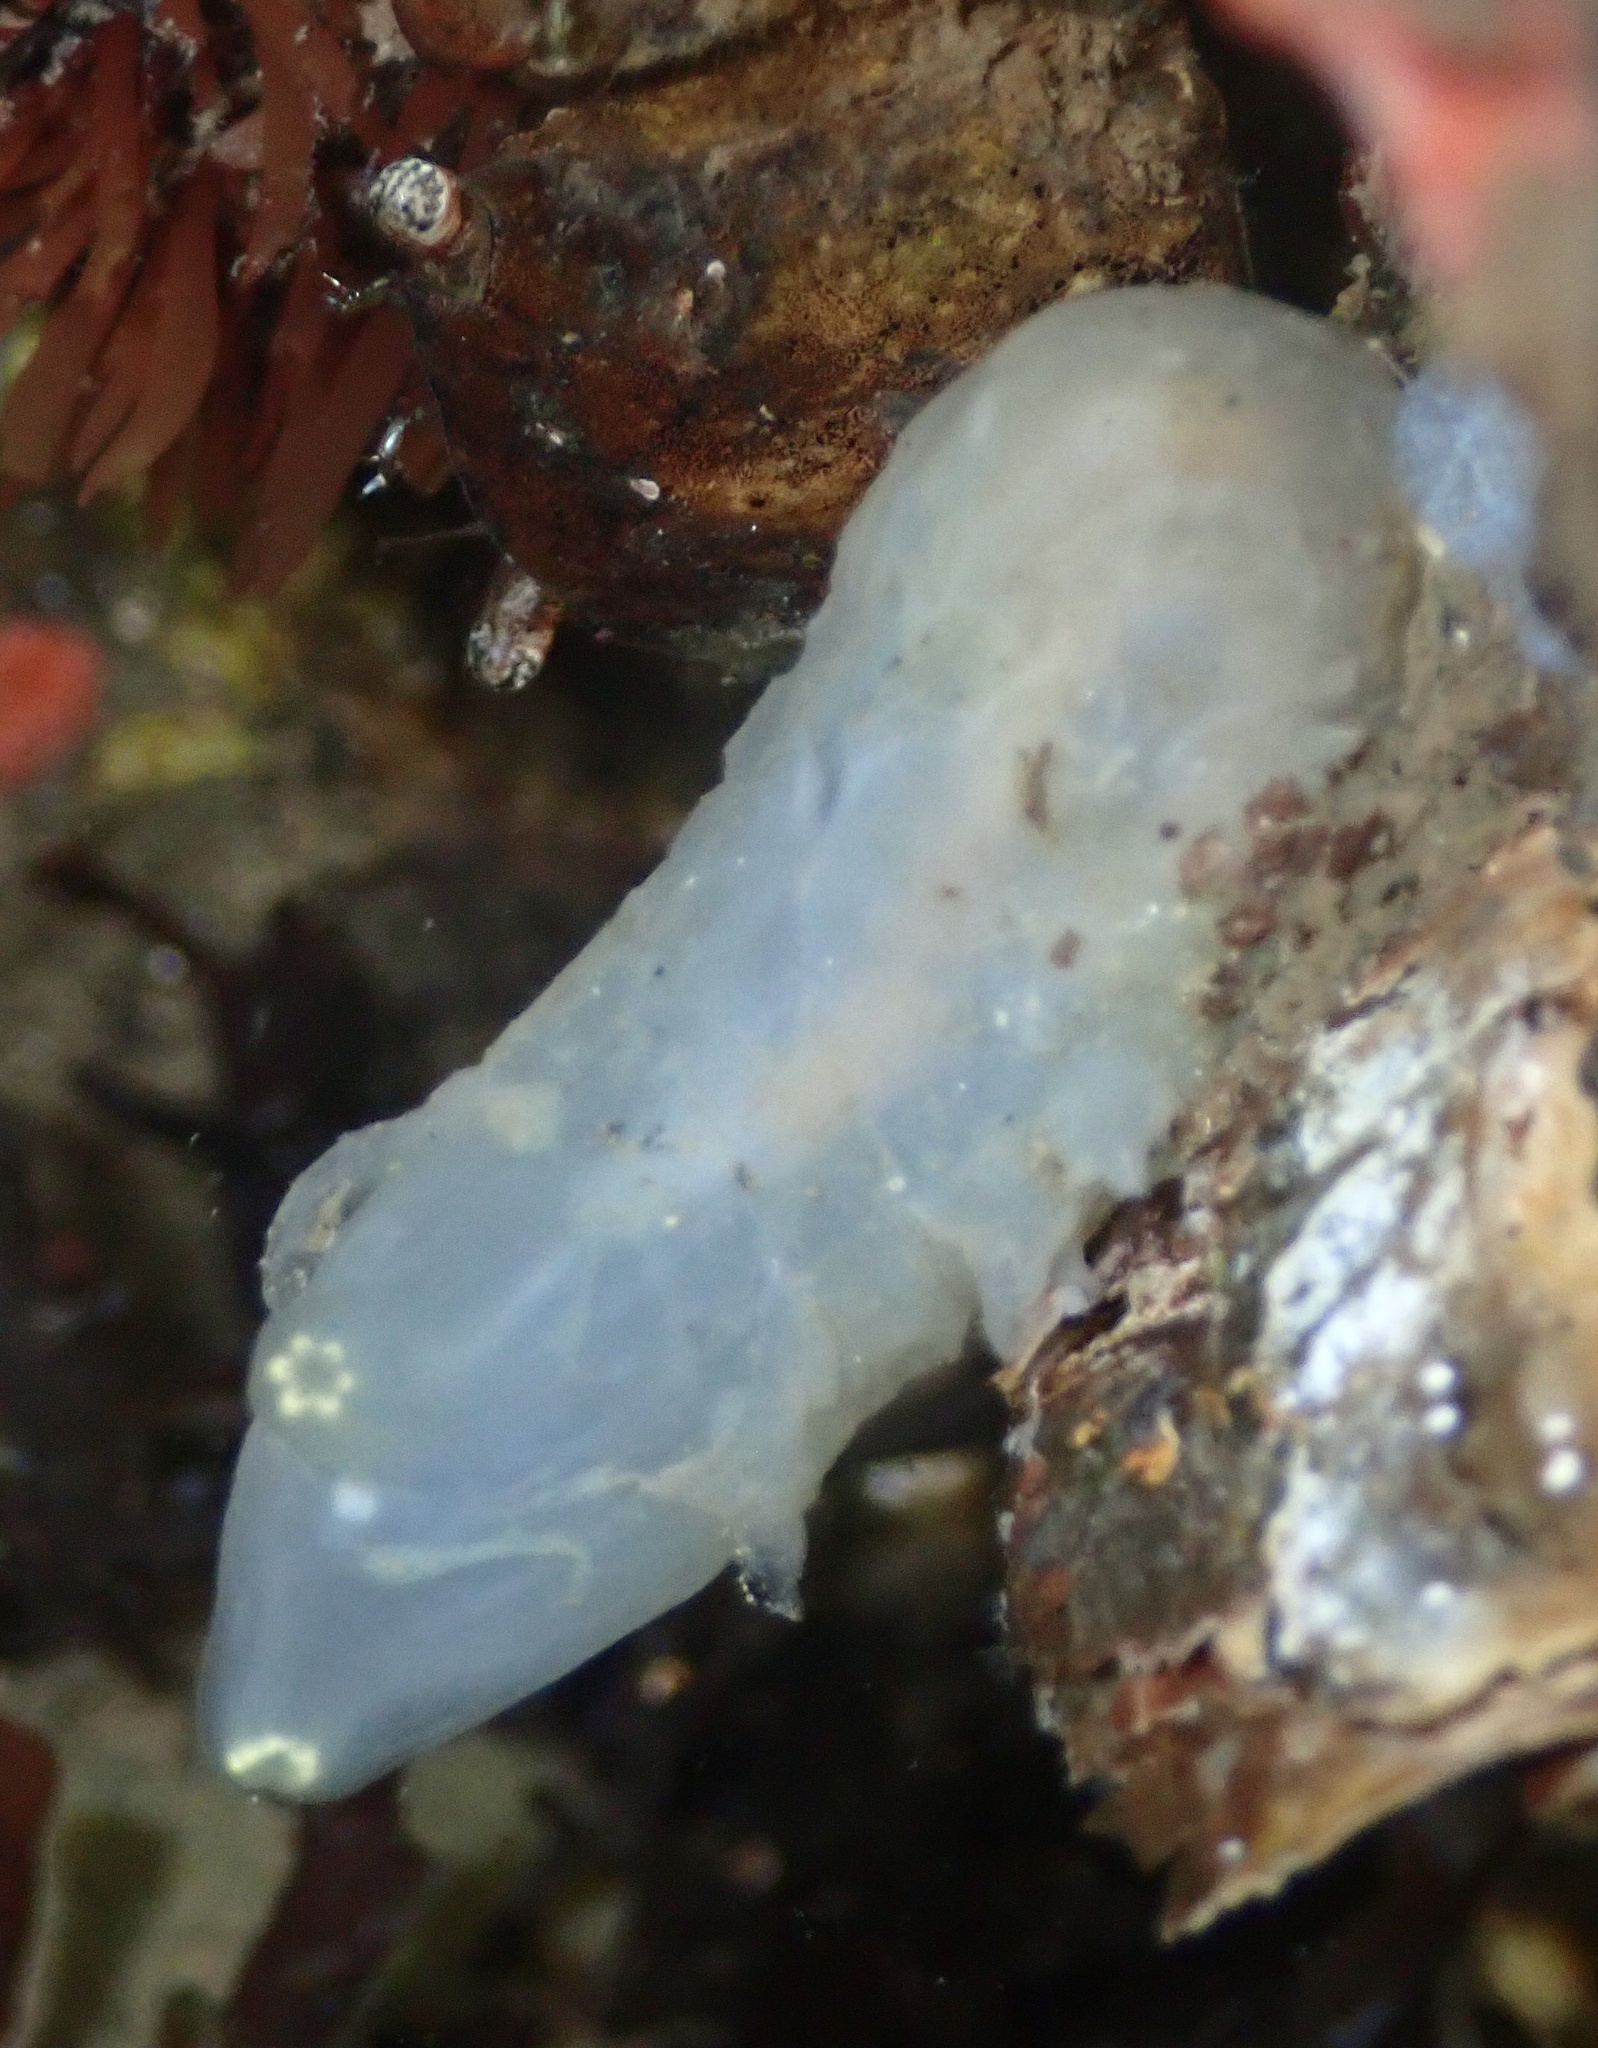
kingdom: Animalia
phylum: Chordata
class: Ascidiacea
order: Phlebobranchia
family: Cionidae
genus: Ciona
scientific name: Ciona intestinalis
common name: Vase tunicate
